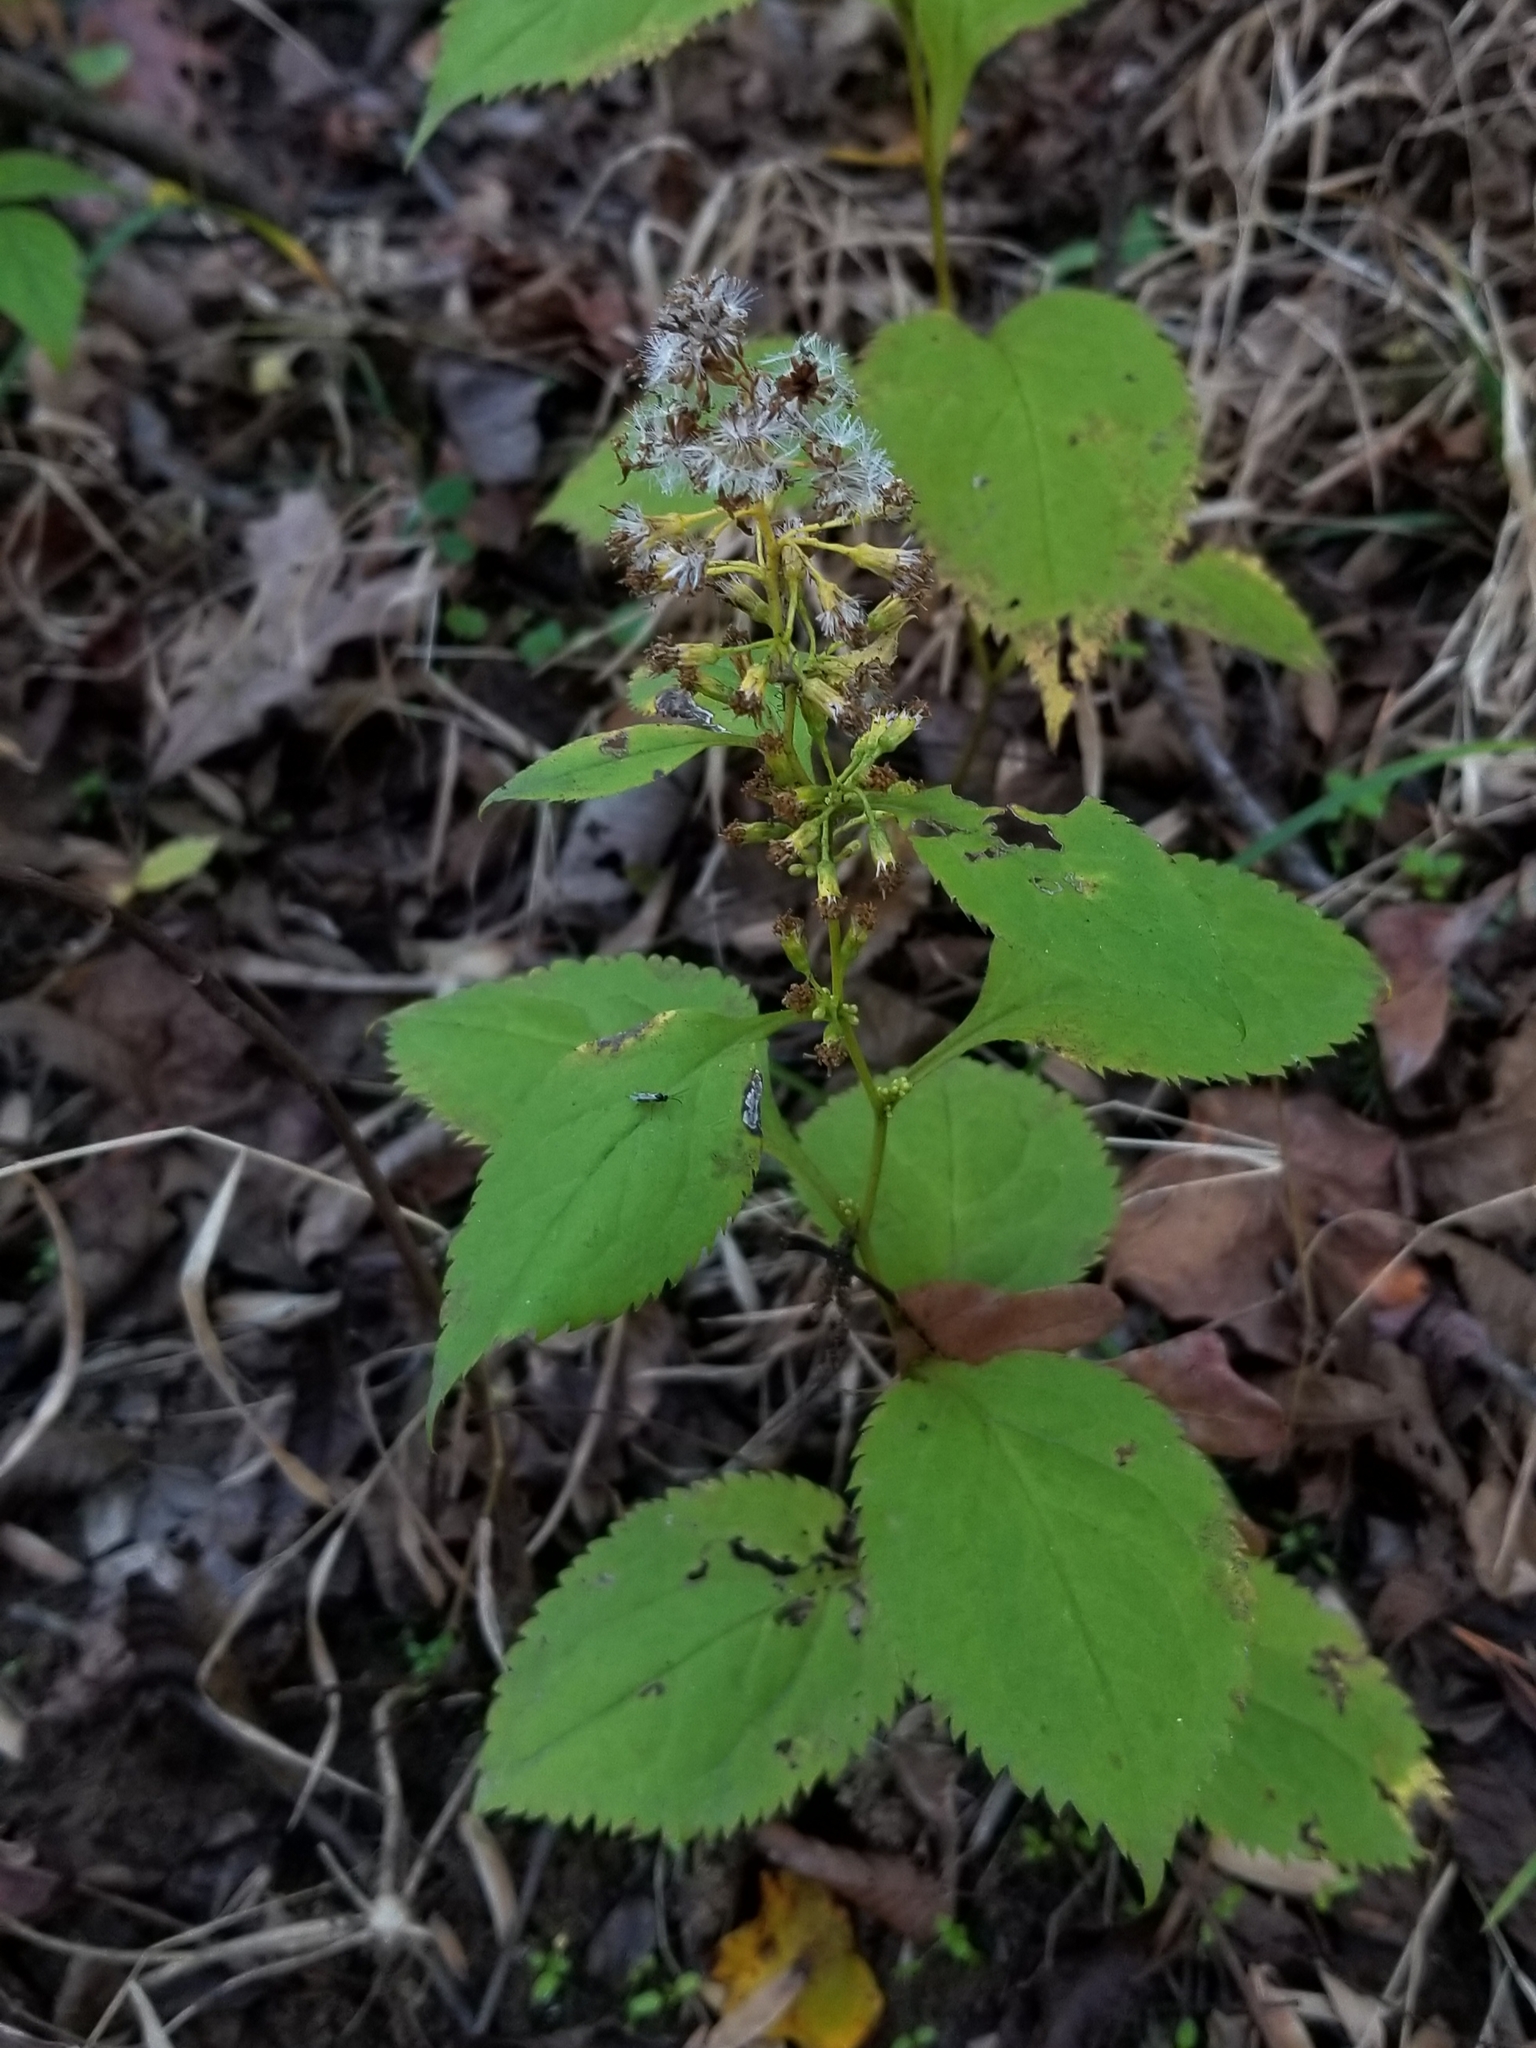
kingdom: Plantae
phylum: Tracheophyta
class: Magnoliopsida
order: Asterales
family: Asteraceae
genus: Solidago
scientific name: Solidago flexicaulis
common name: Zig-zag goldenrod
